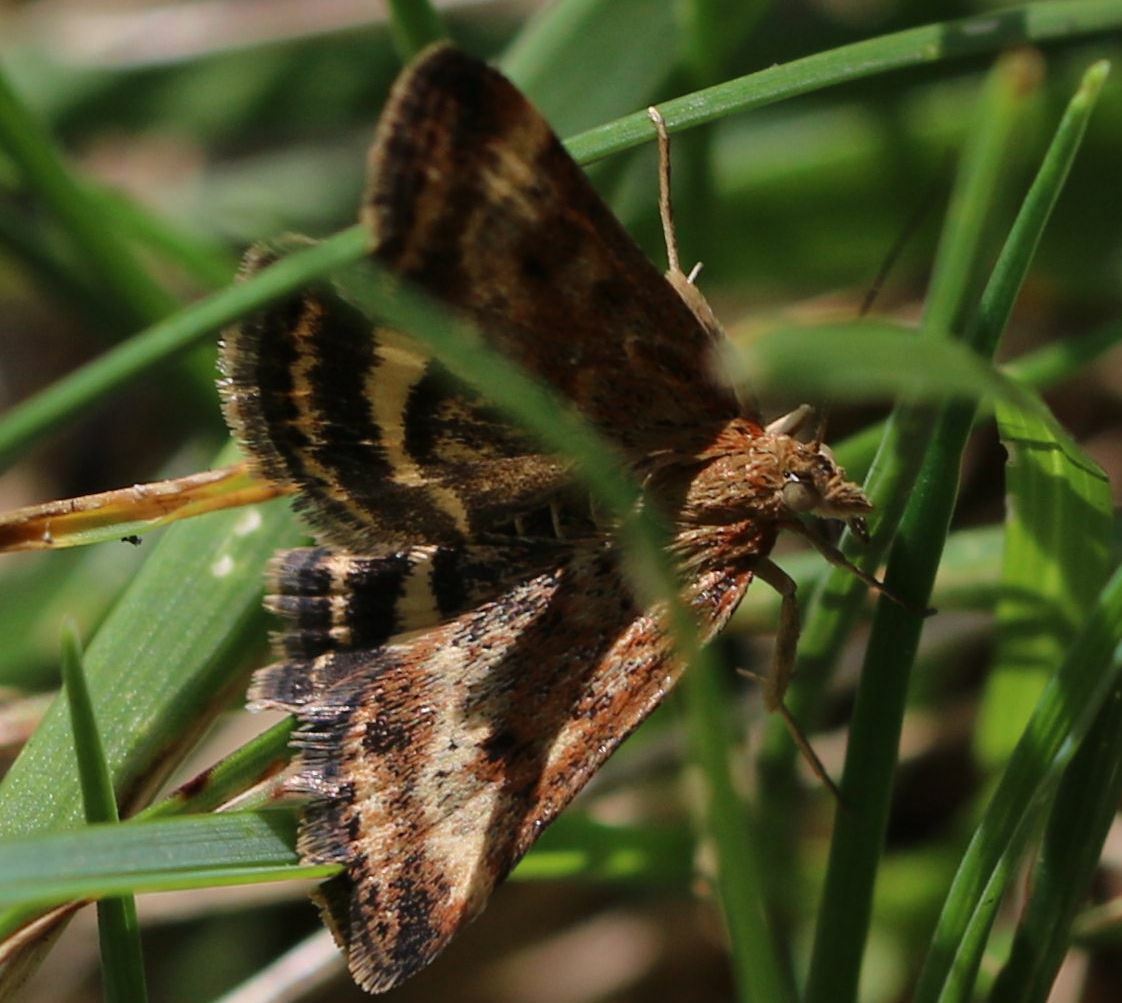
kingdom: Animalia
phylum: Arthropoda
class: Insecta
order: Lepidoptera
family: Crambidae
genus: Pyrausta
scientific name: Pyrausta despicata
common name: Straw-barred pearl
